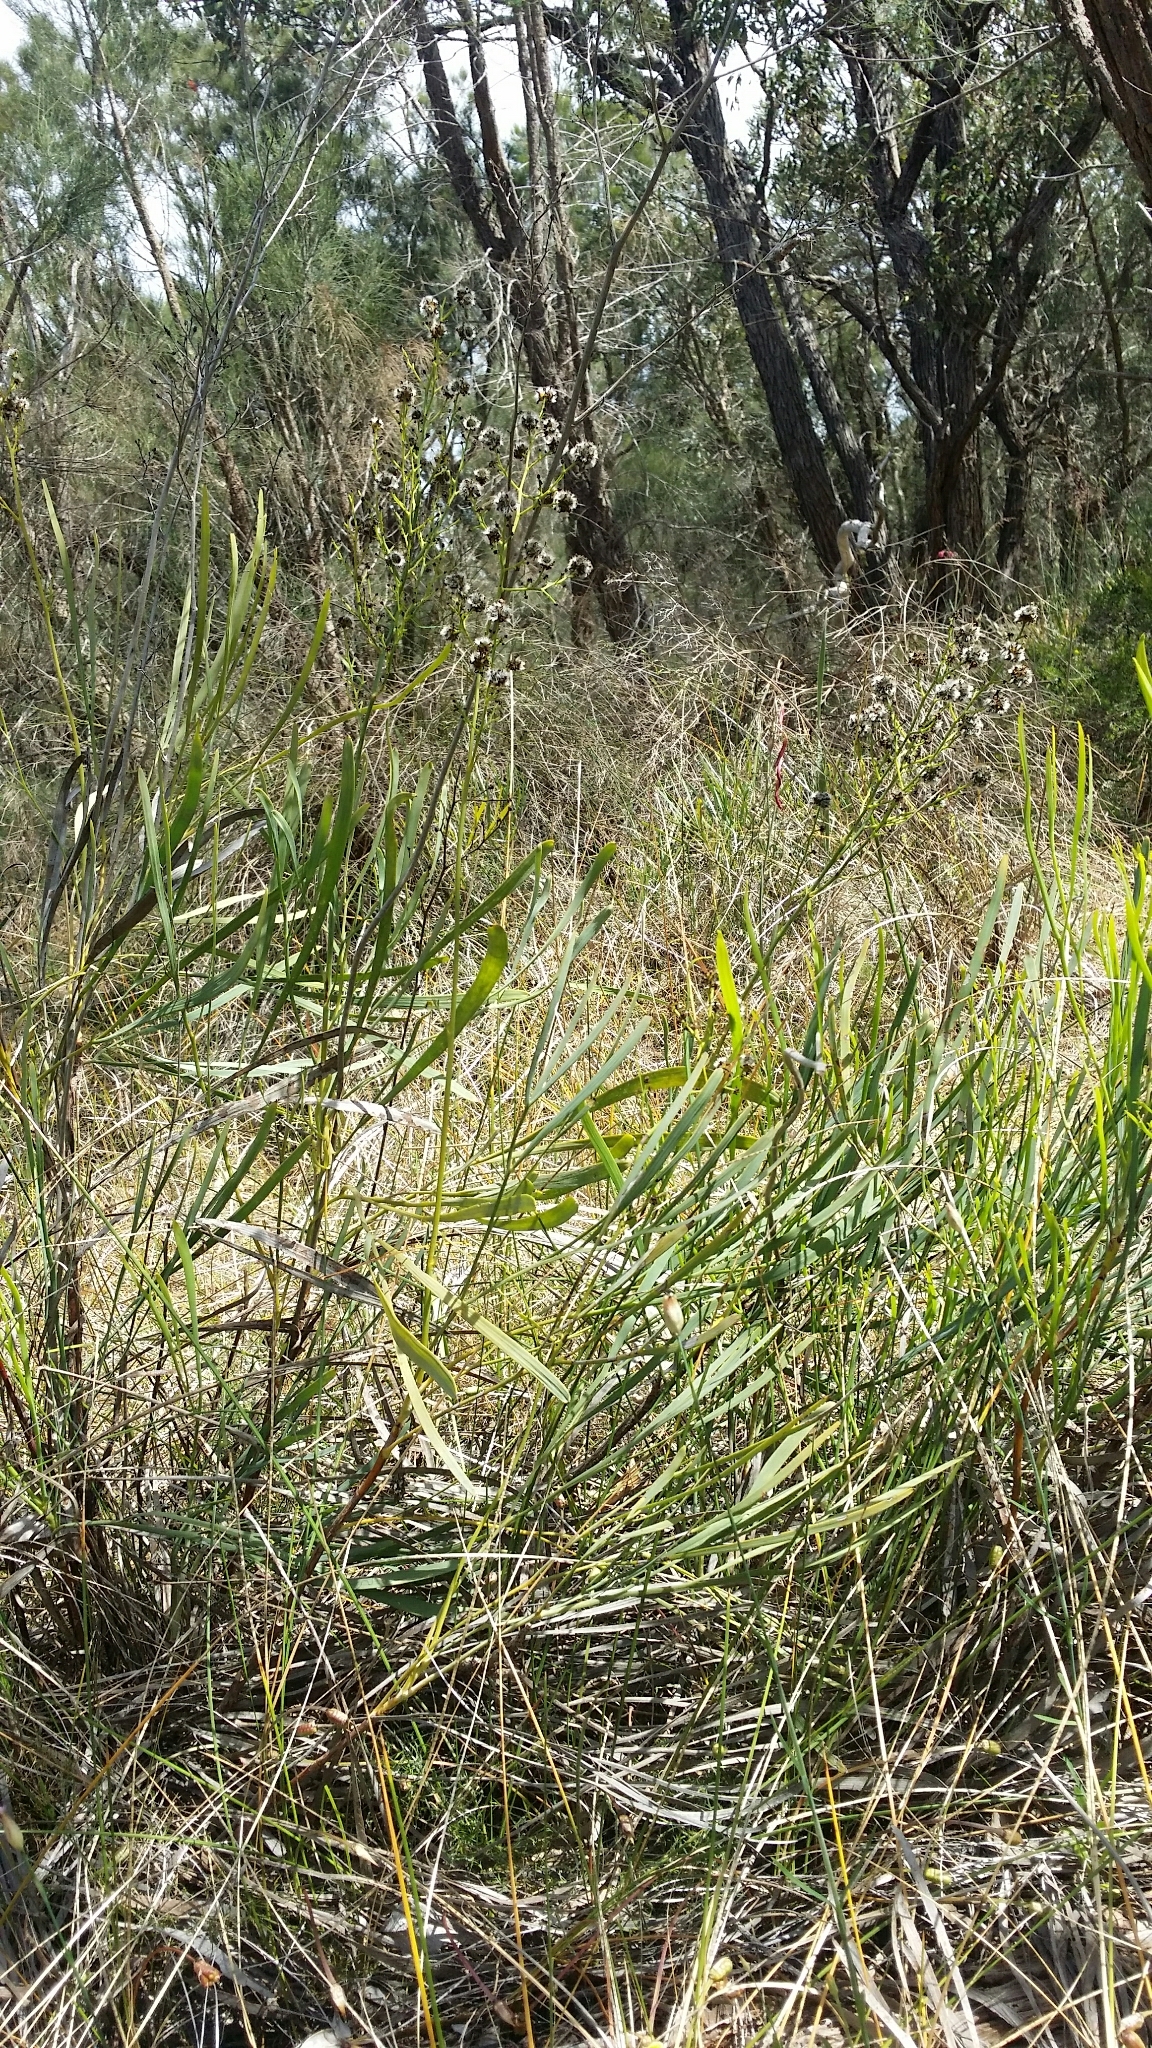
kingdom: Plantae
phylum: Tracheophyta
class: Magnoliopsida
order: Proteales
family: Proteaceae
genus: Stirlingia
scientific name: Stirlingia latifolia
